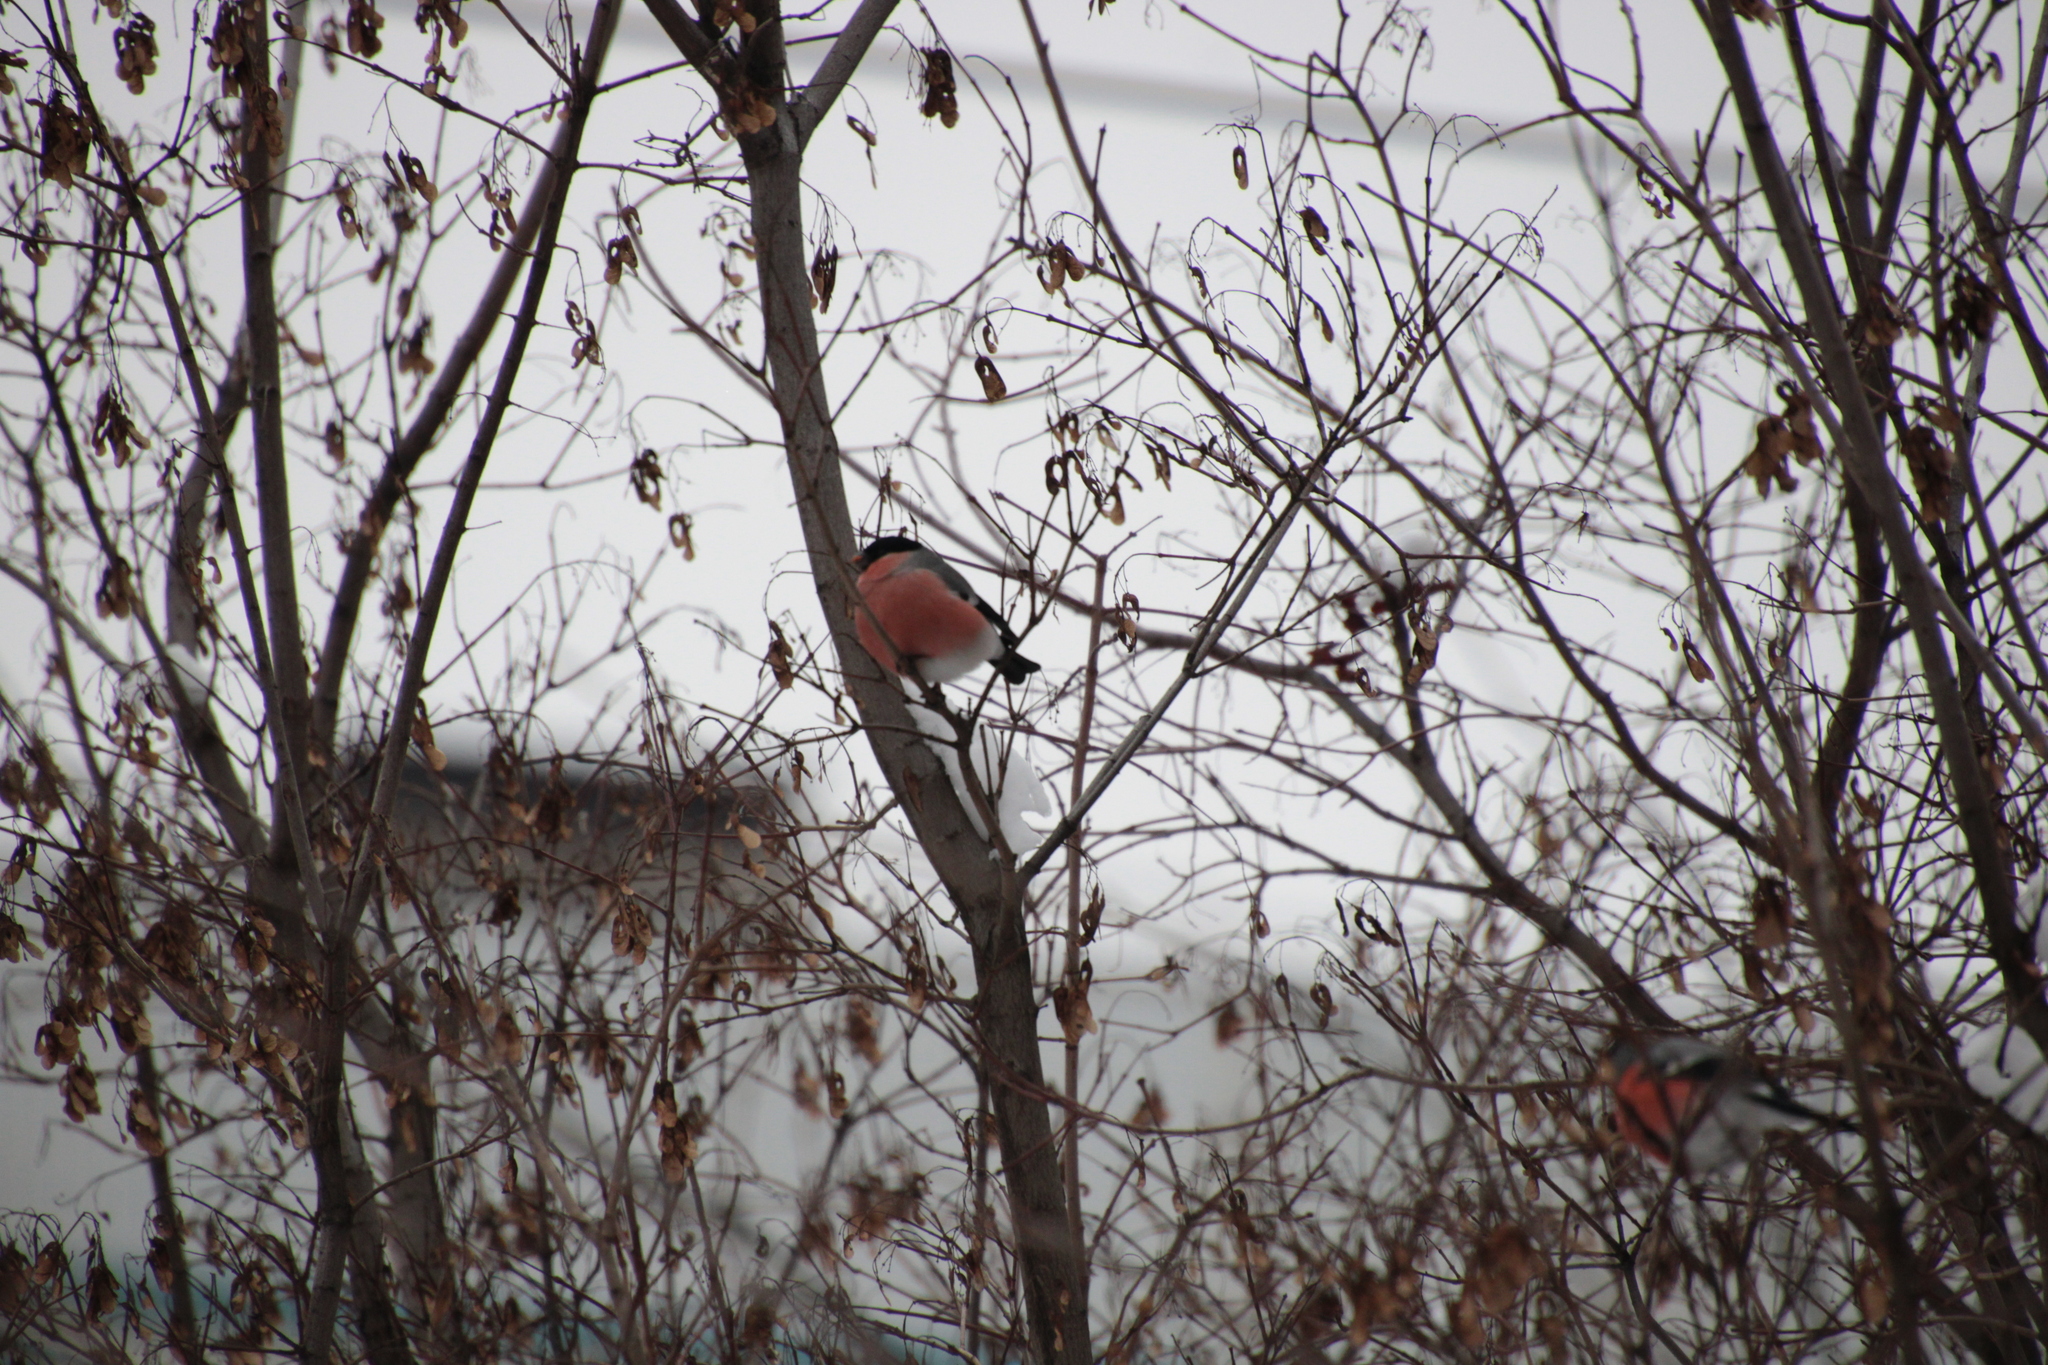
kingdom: Animalia
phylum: Chordata
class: Aves
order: Passeriformes
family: Fringillidae
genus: Pyrrhula
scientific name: Pyrrhula pyrrhula
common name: Eurasian bullfinch
